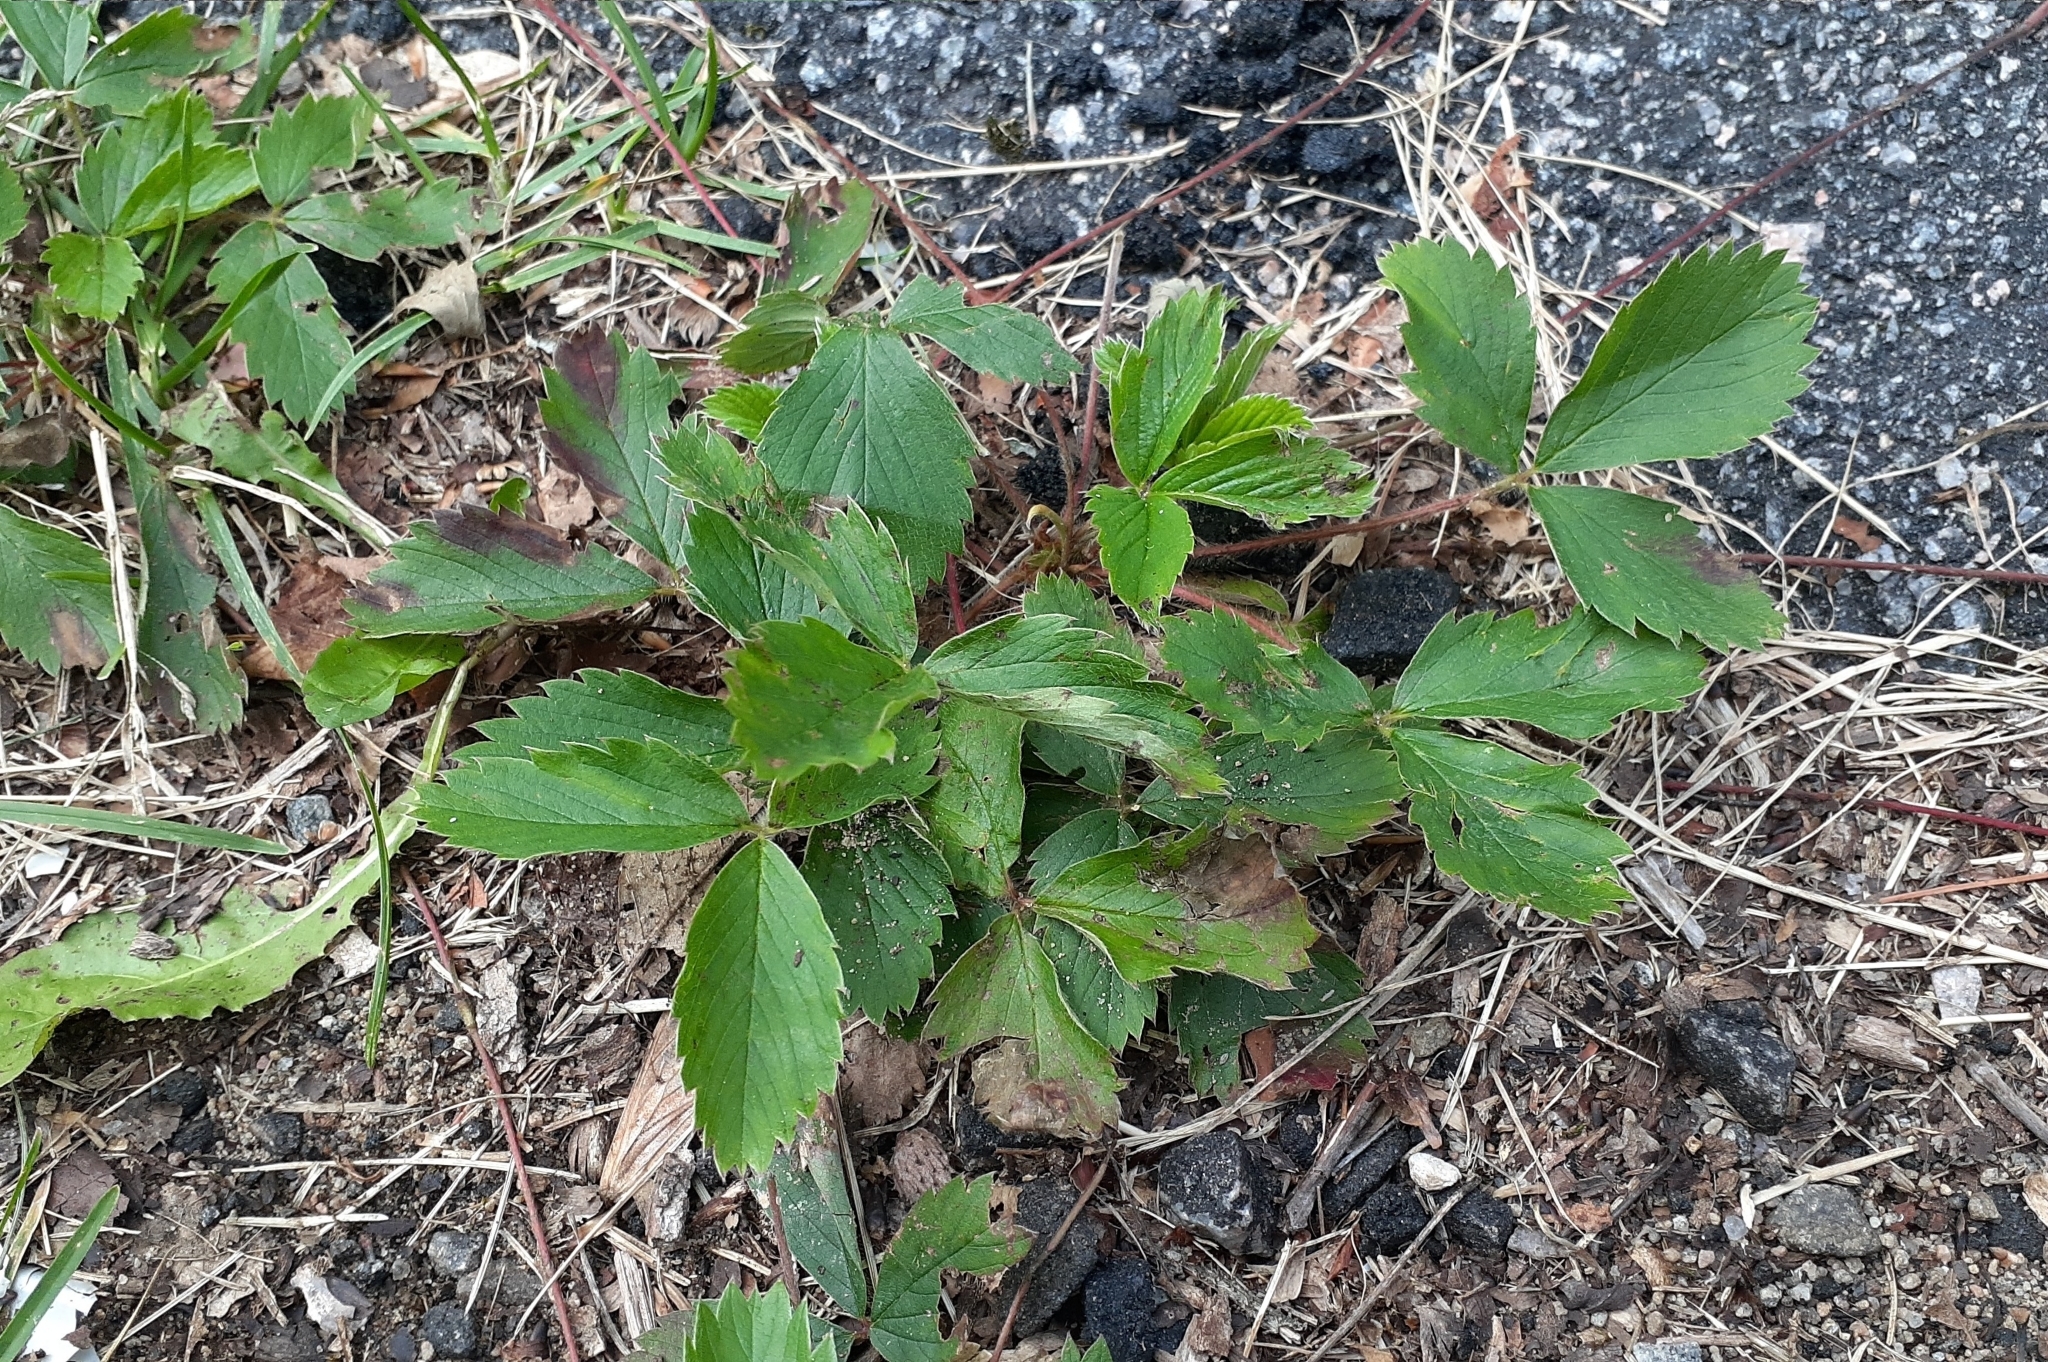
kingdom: Plantae
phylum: Tracheophyta
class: Magnoliopsida
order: Rosales
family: Rosaceae
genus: Fragaria
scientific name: Fragaria virginiana
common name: Thickleaved wild strawberry
